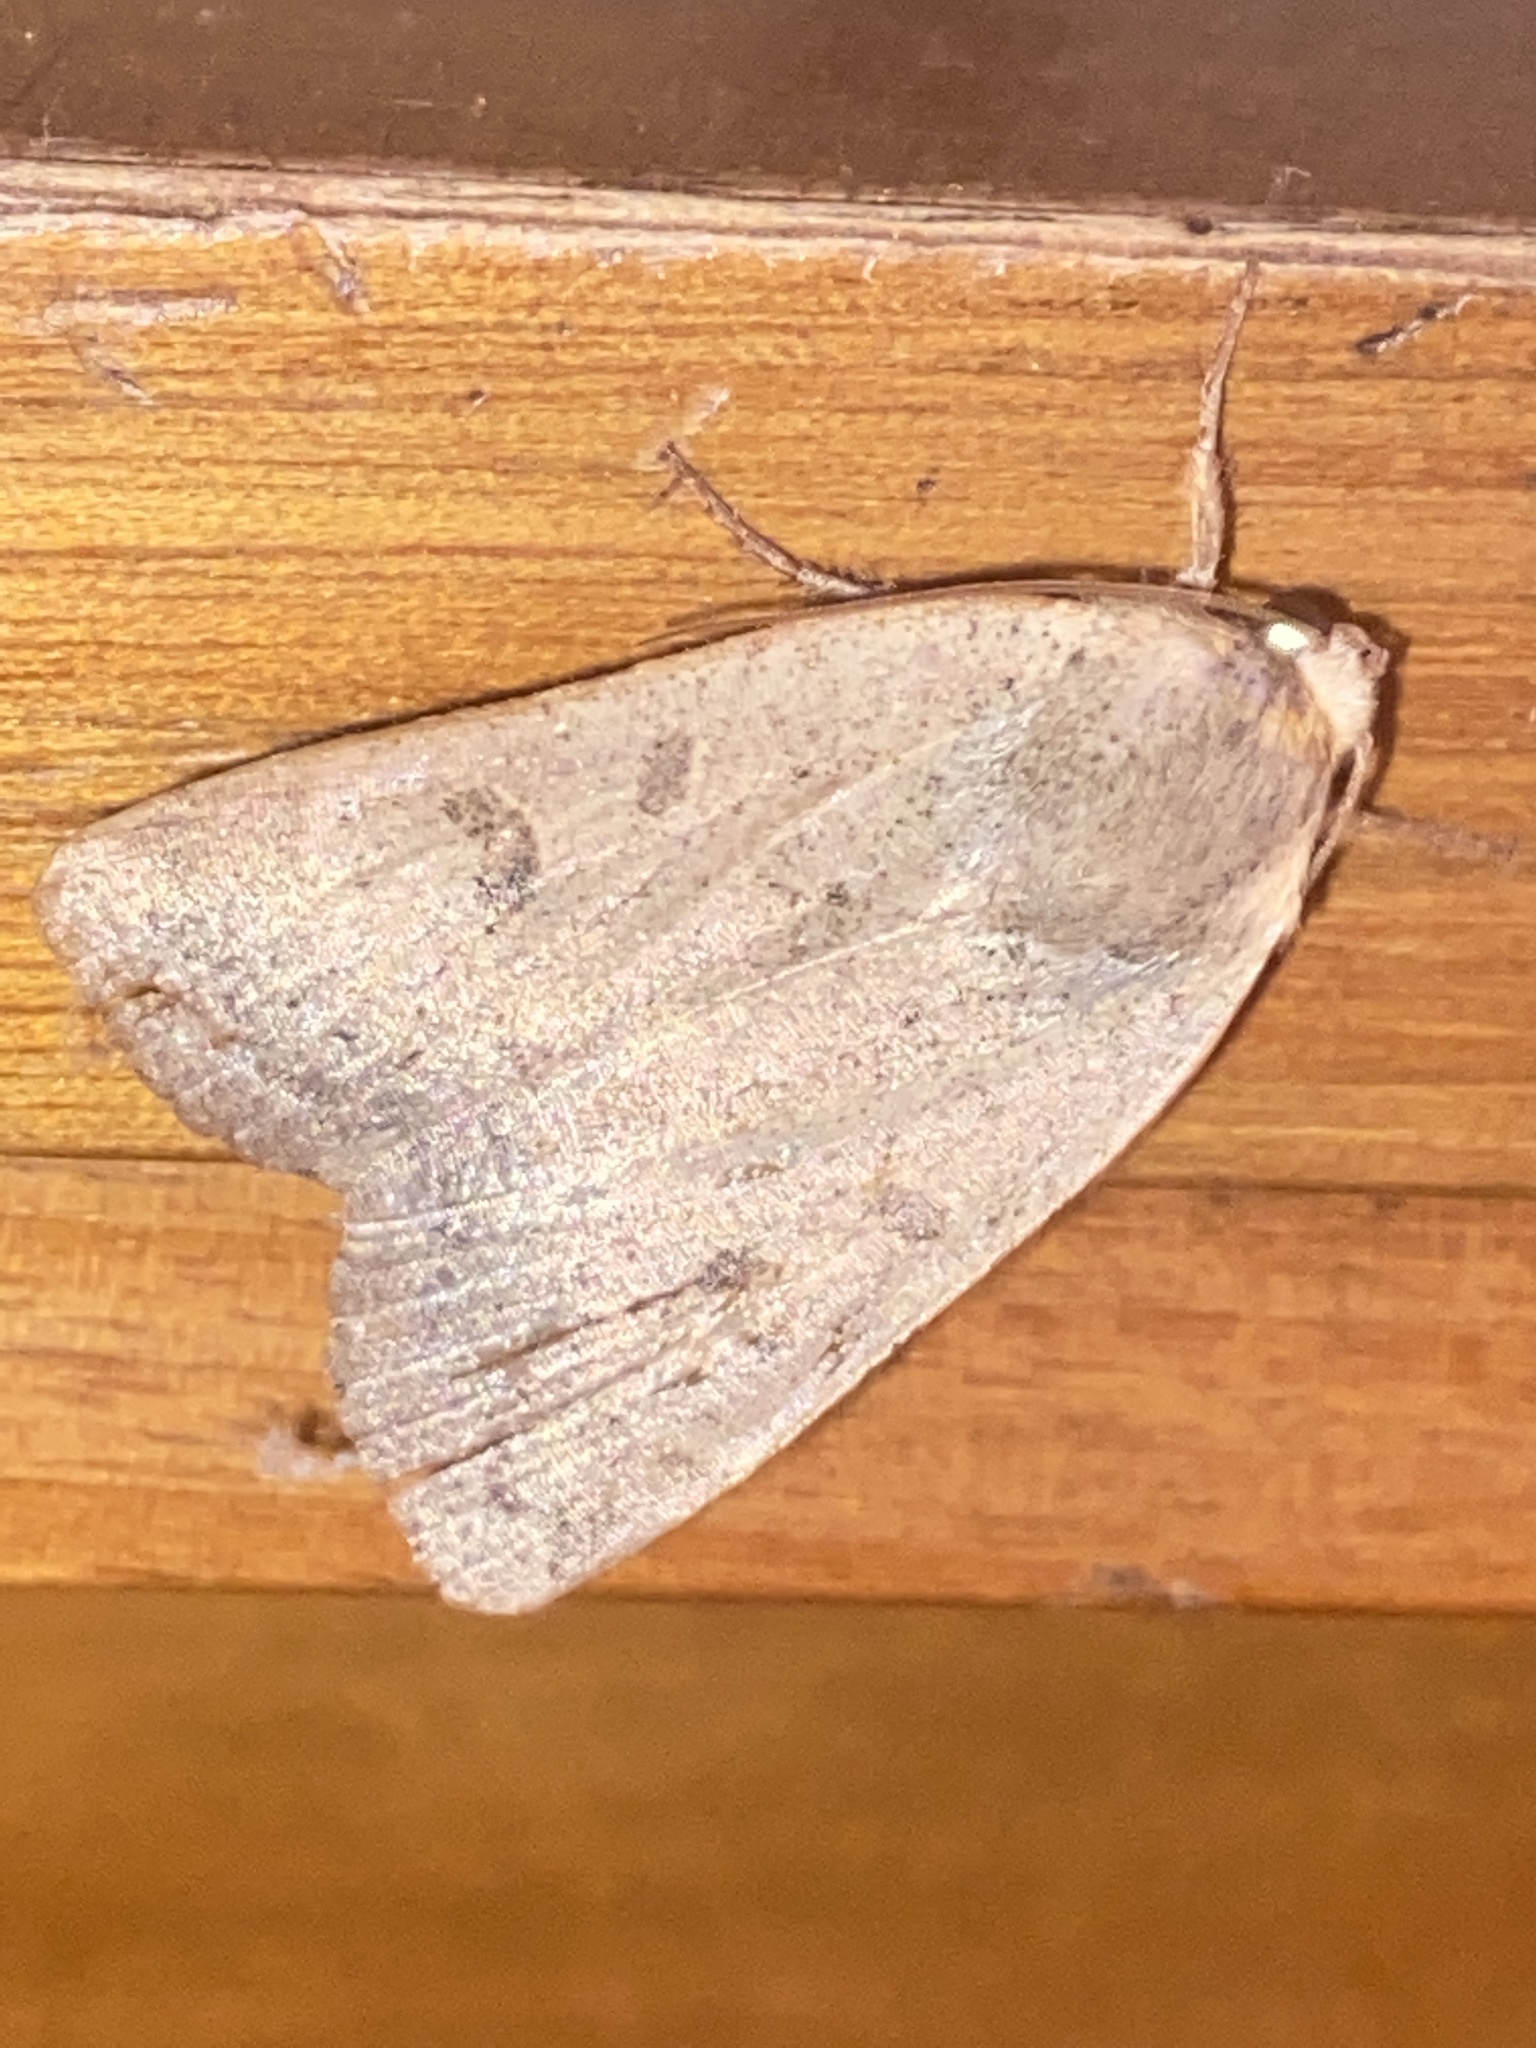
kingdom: Animalia
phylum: Arthropoda
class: Insecta
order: Lepidoptera
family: Noctuidae
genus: Noctua
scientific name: Noctua comes
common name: Lesser yellow underwing
